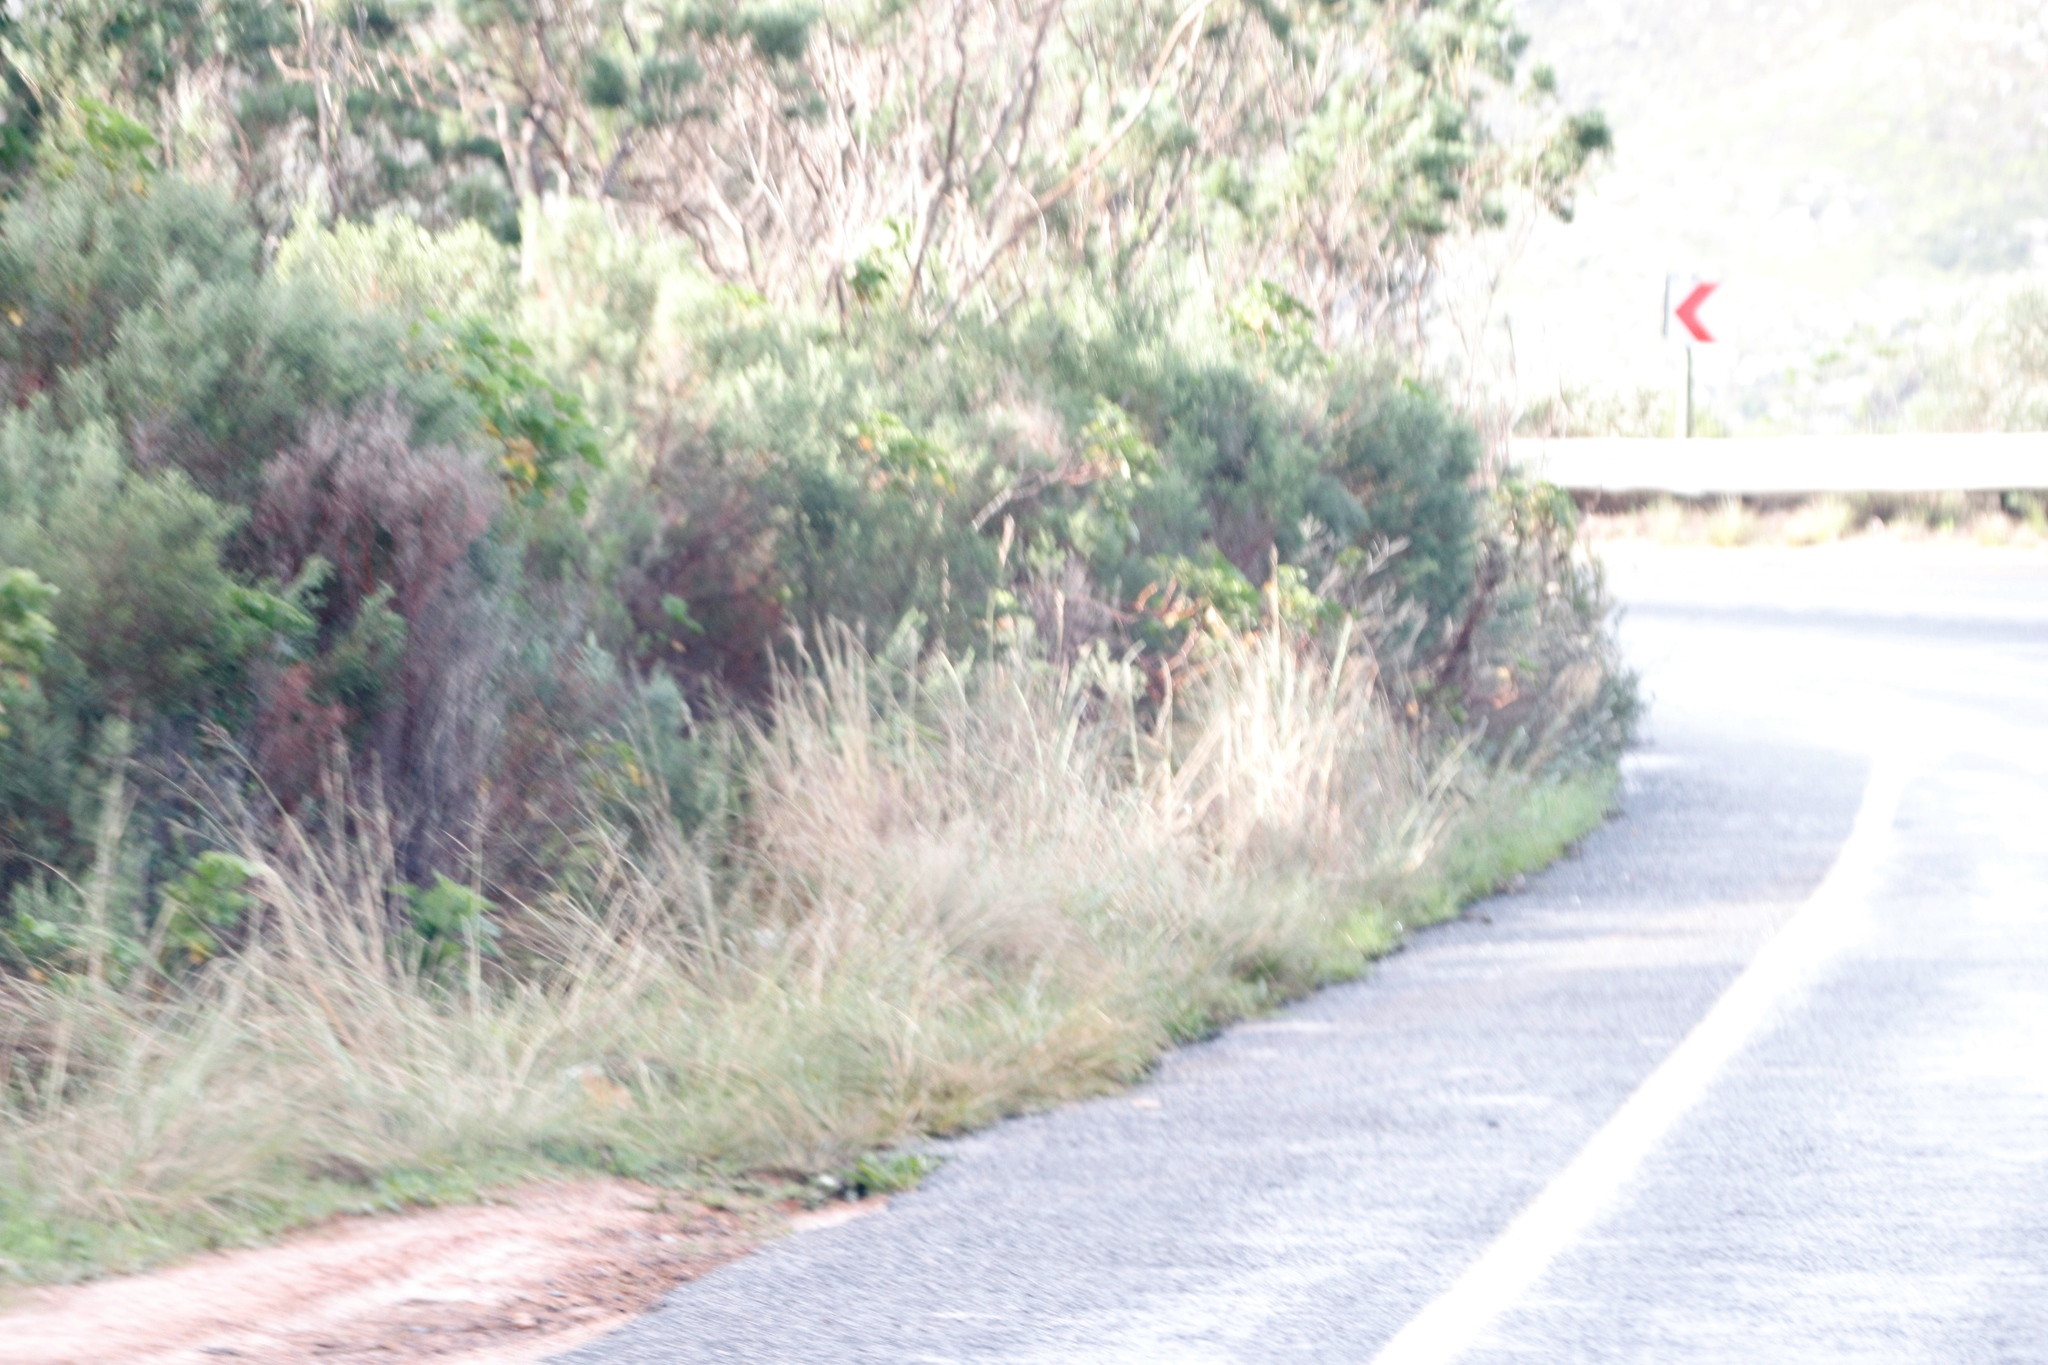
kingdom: Plantae
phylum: Tracheophyta
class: Liliopsida
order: Poales
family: Poaceae
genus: Hyparrhenia
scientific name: Hyparrhenia hirta
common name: Thatching grass
